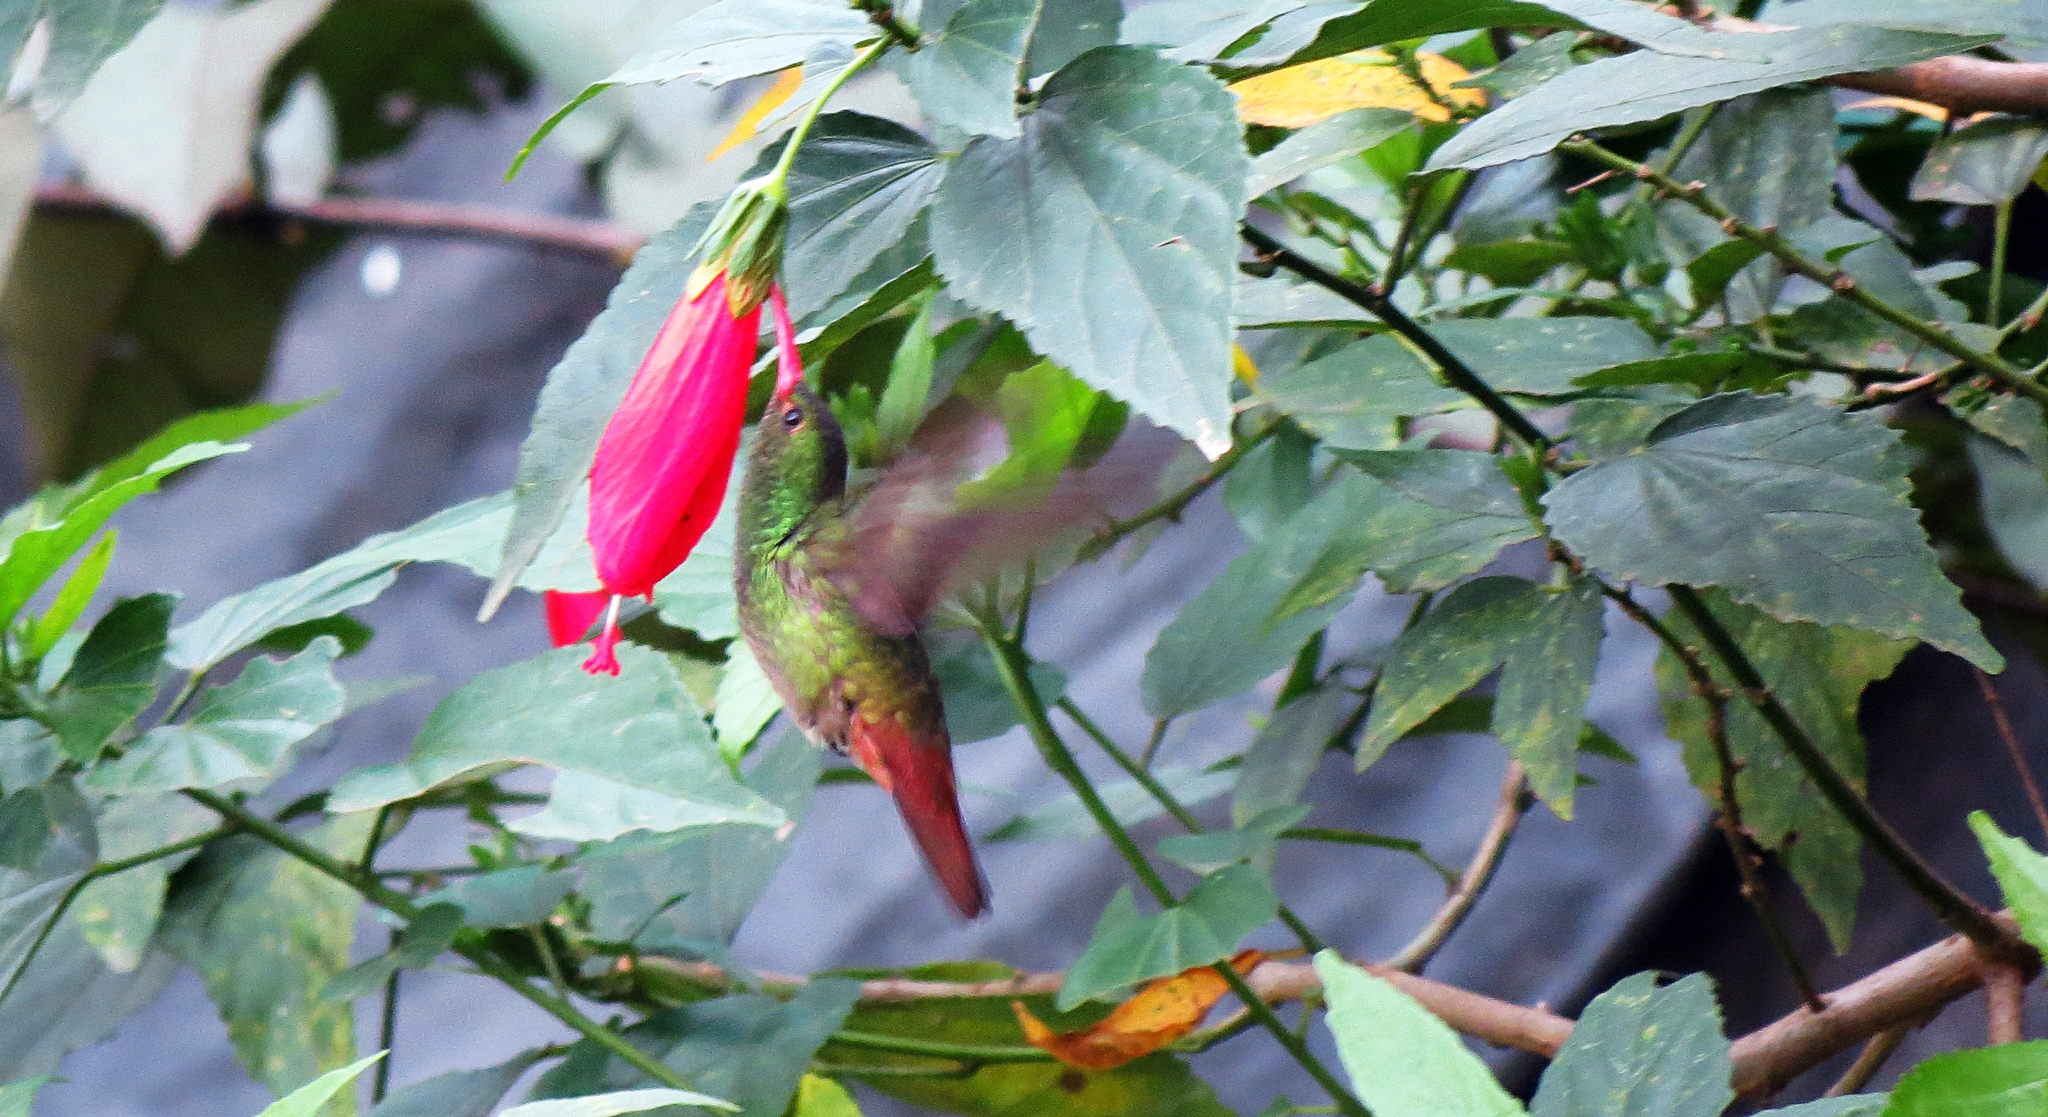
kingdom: Animalia
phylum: Chordata
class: Aves
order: Apodiformes
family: Trochilidae
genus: Amazilia
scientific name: Amazilia tzacatl
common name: Rufous-tailed hummingbird
